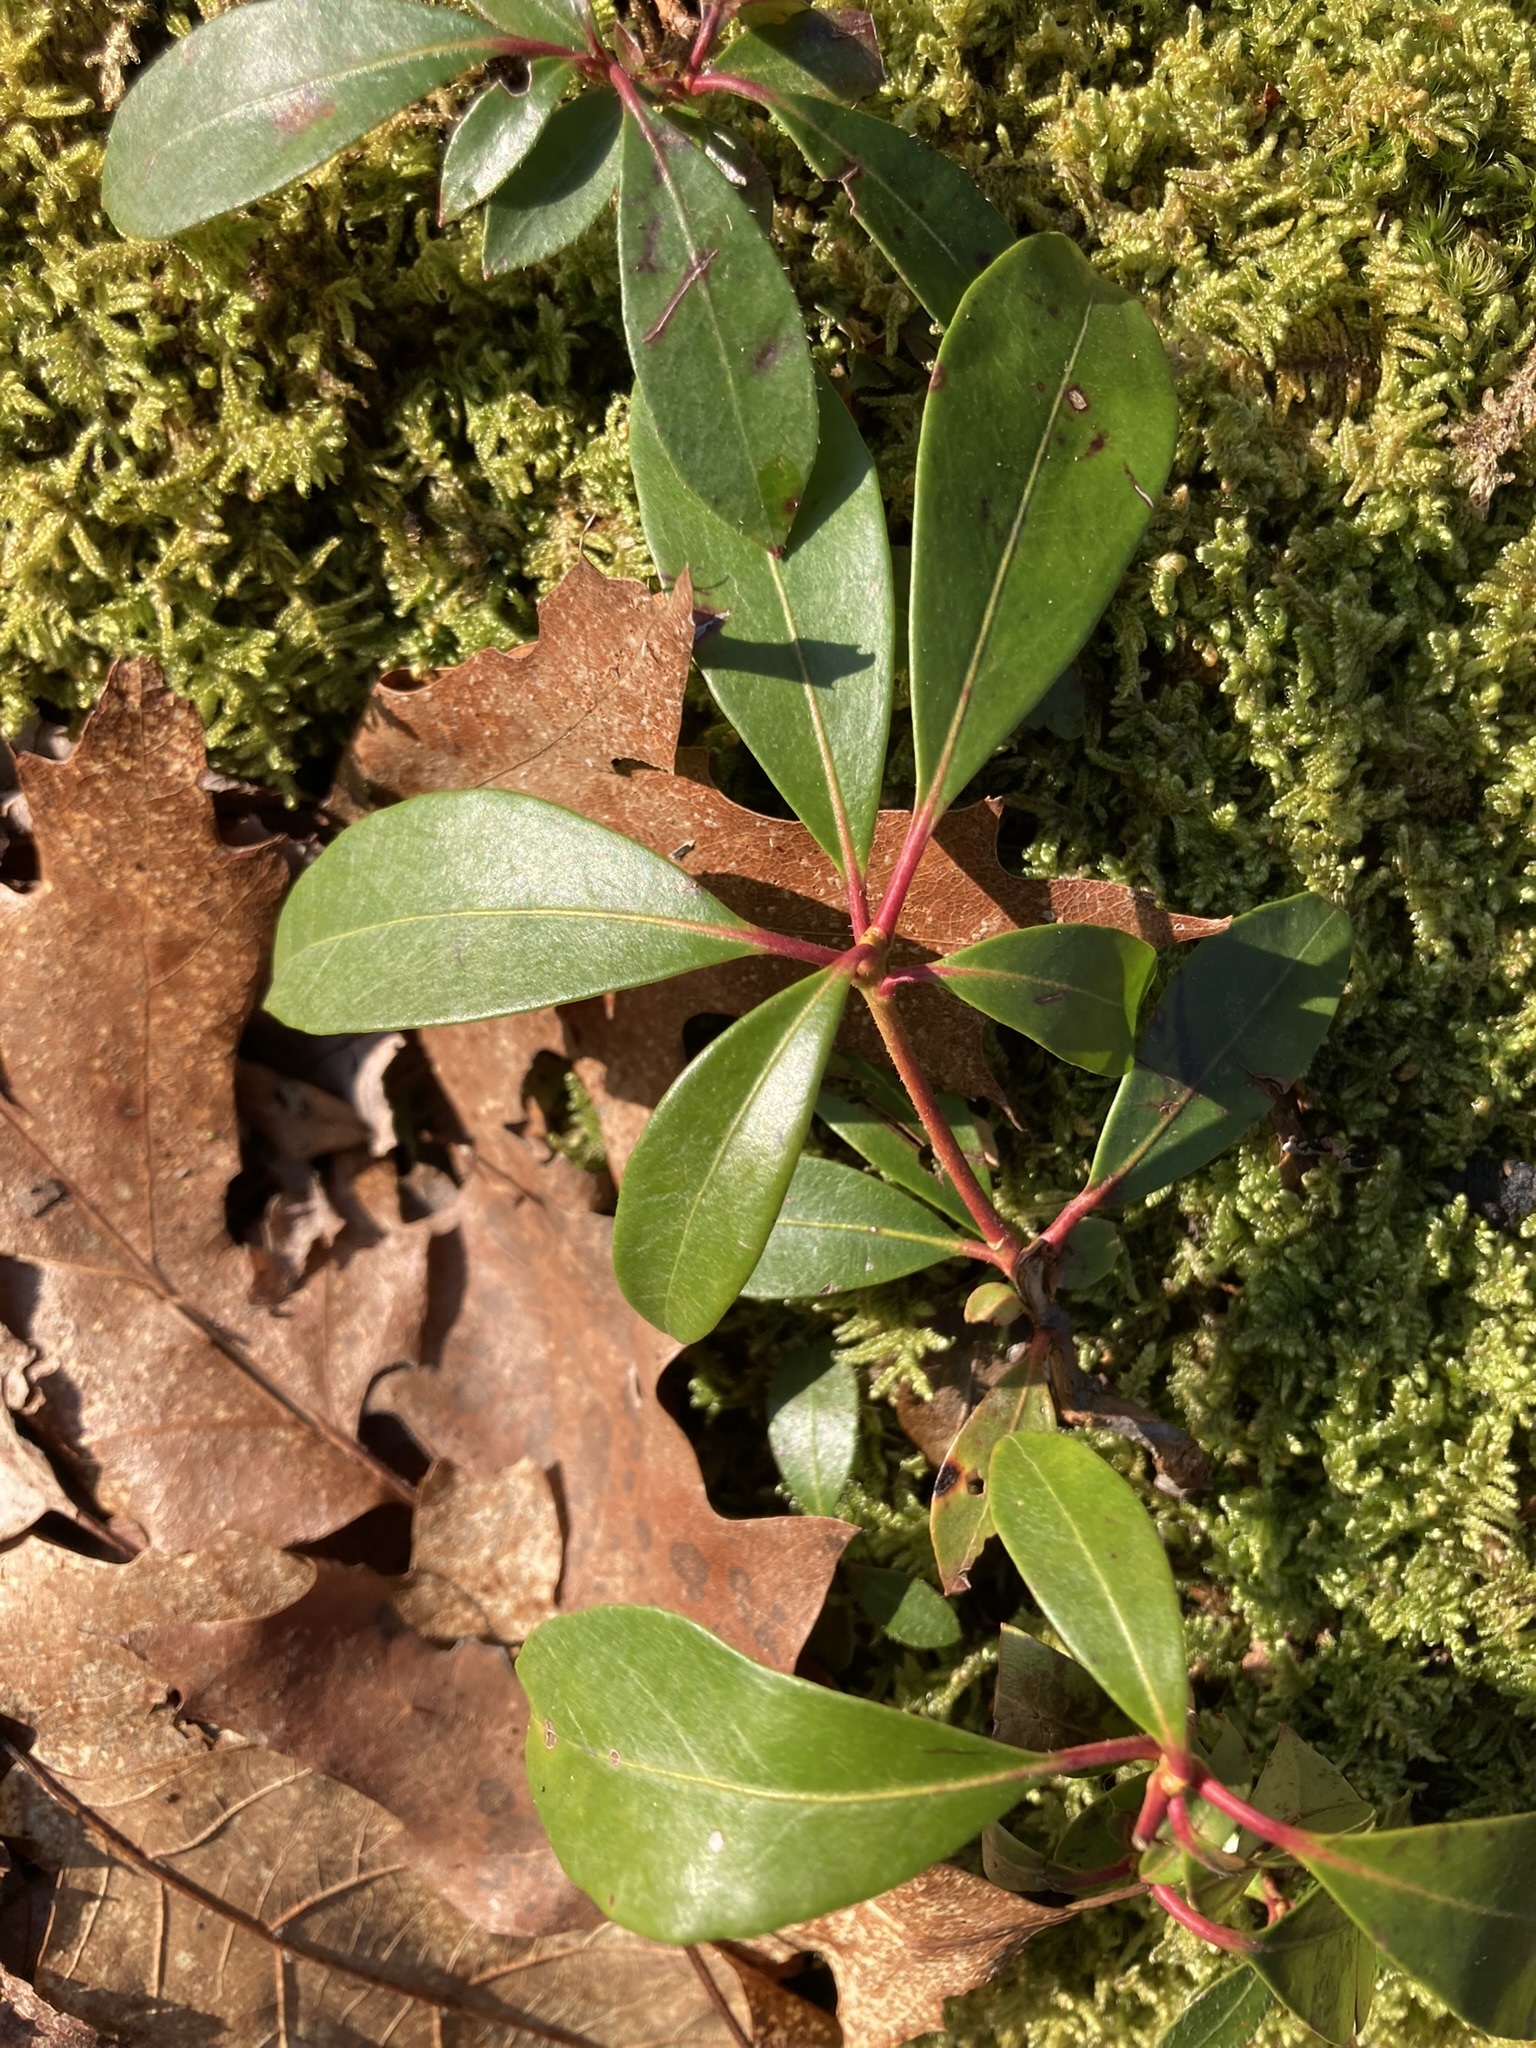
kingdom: Plantae
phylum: Tracheophyta
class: Magnoliopsida
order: Ericales
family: Ericaceae
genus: Gaultheria
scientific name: Gaultheria procumbens
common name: Checkerberry
